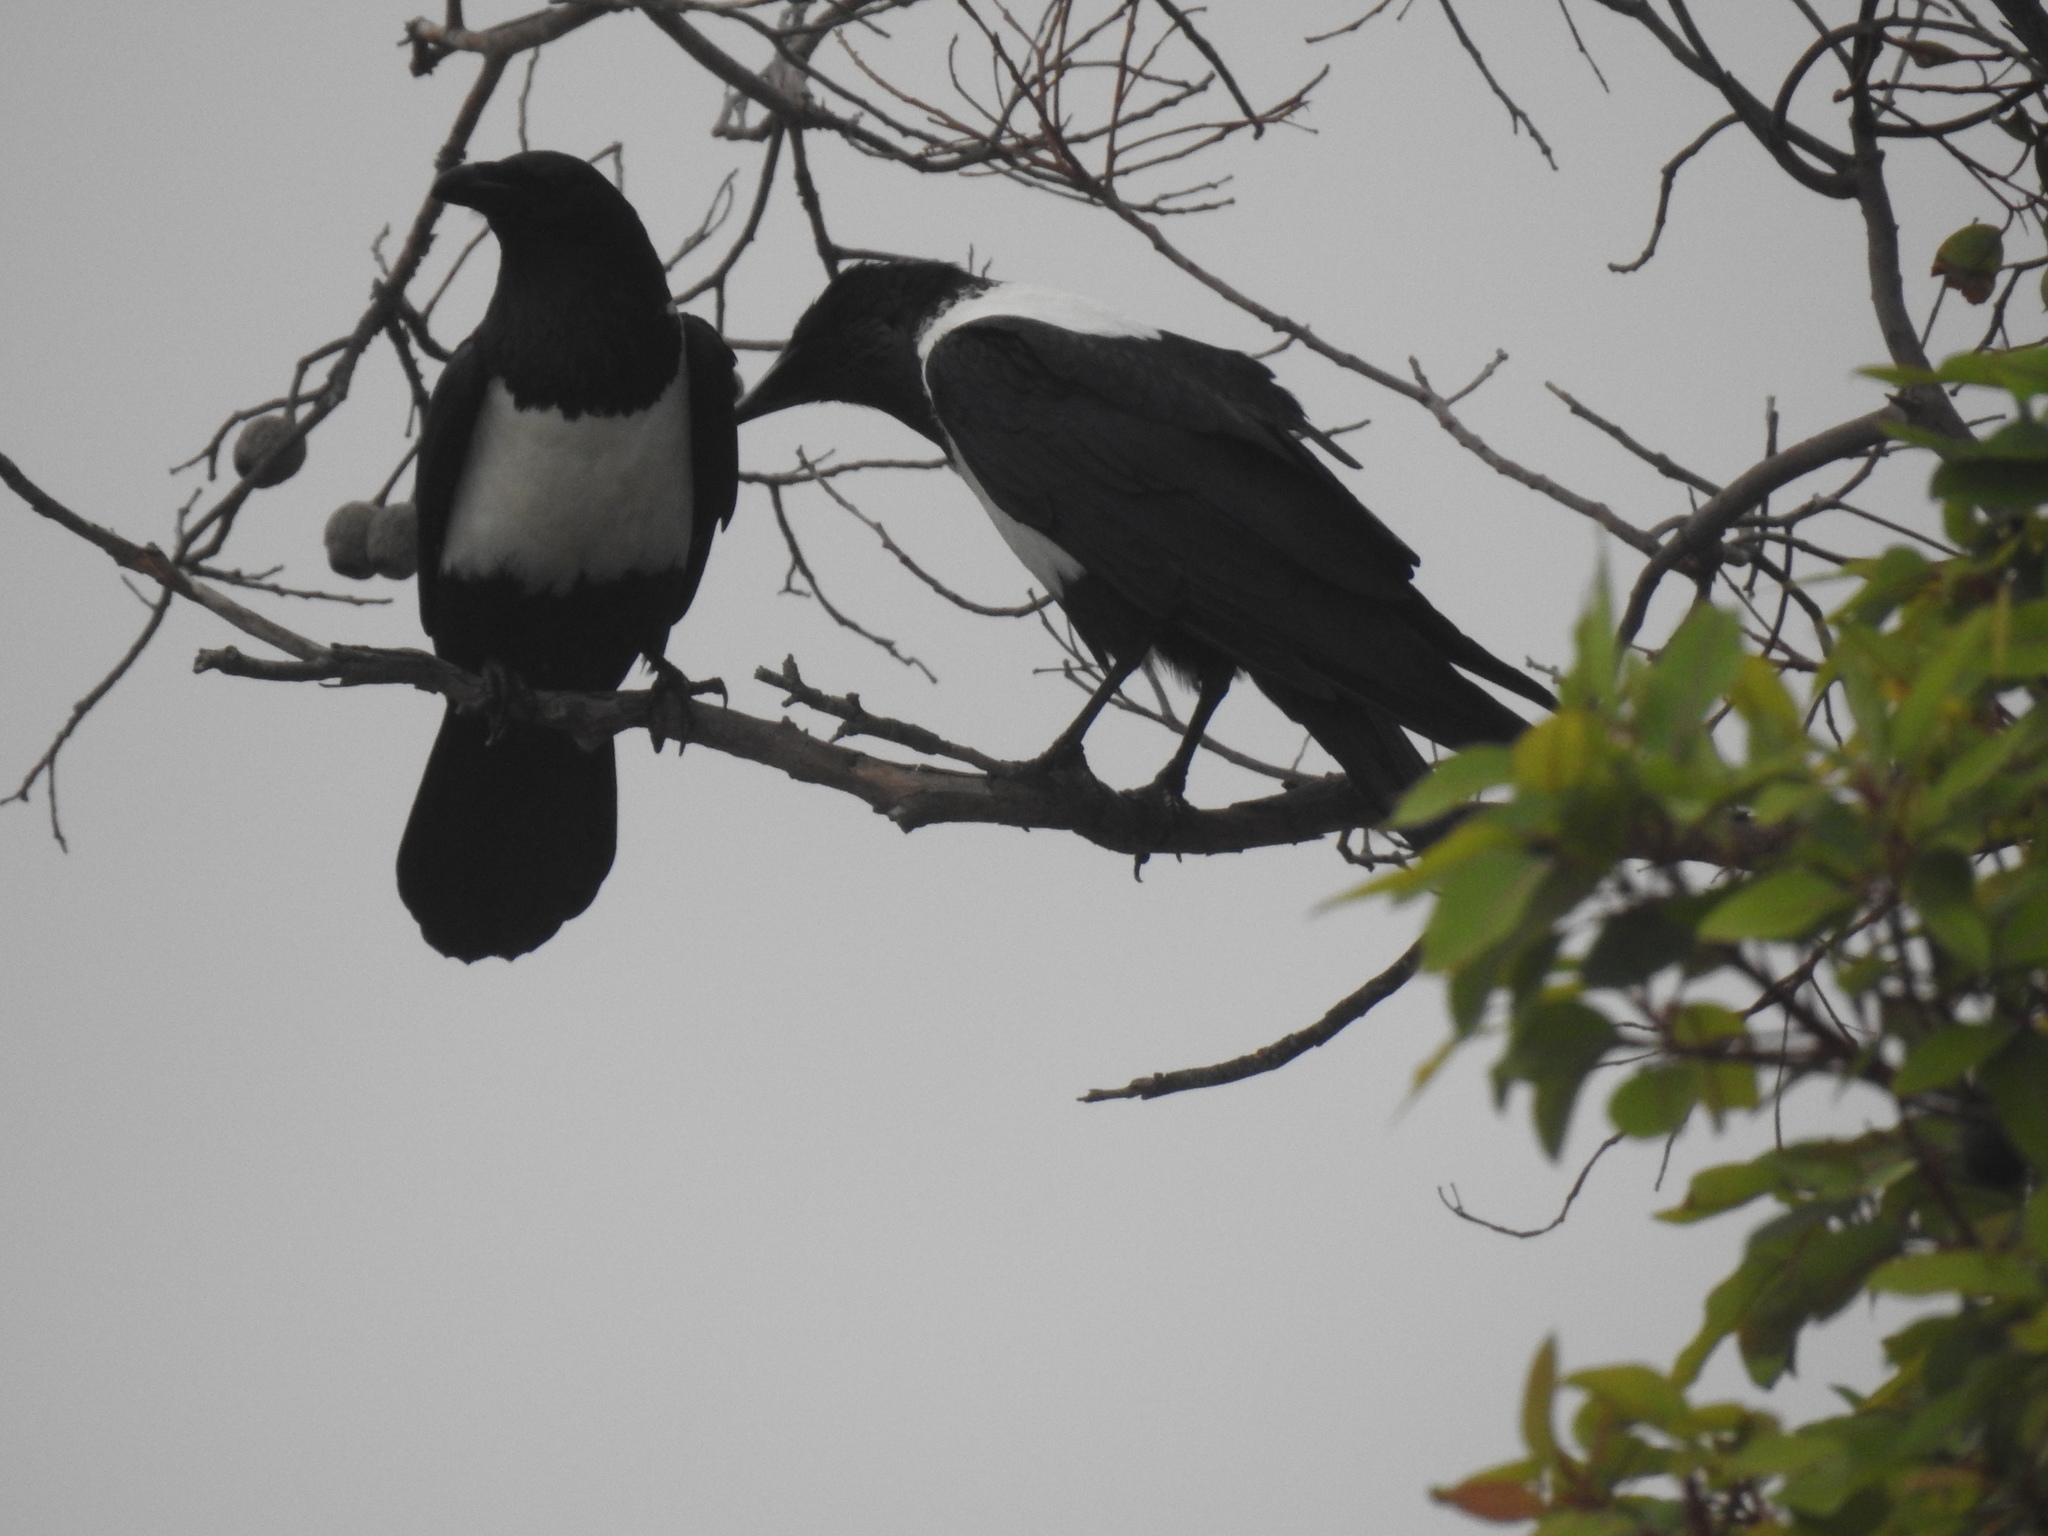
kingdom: Animalia
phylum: Chordata
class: Aves
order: Passeriformes
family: Corvidae
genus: Corvus
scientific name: Corvus albus
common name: Pied crow
